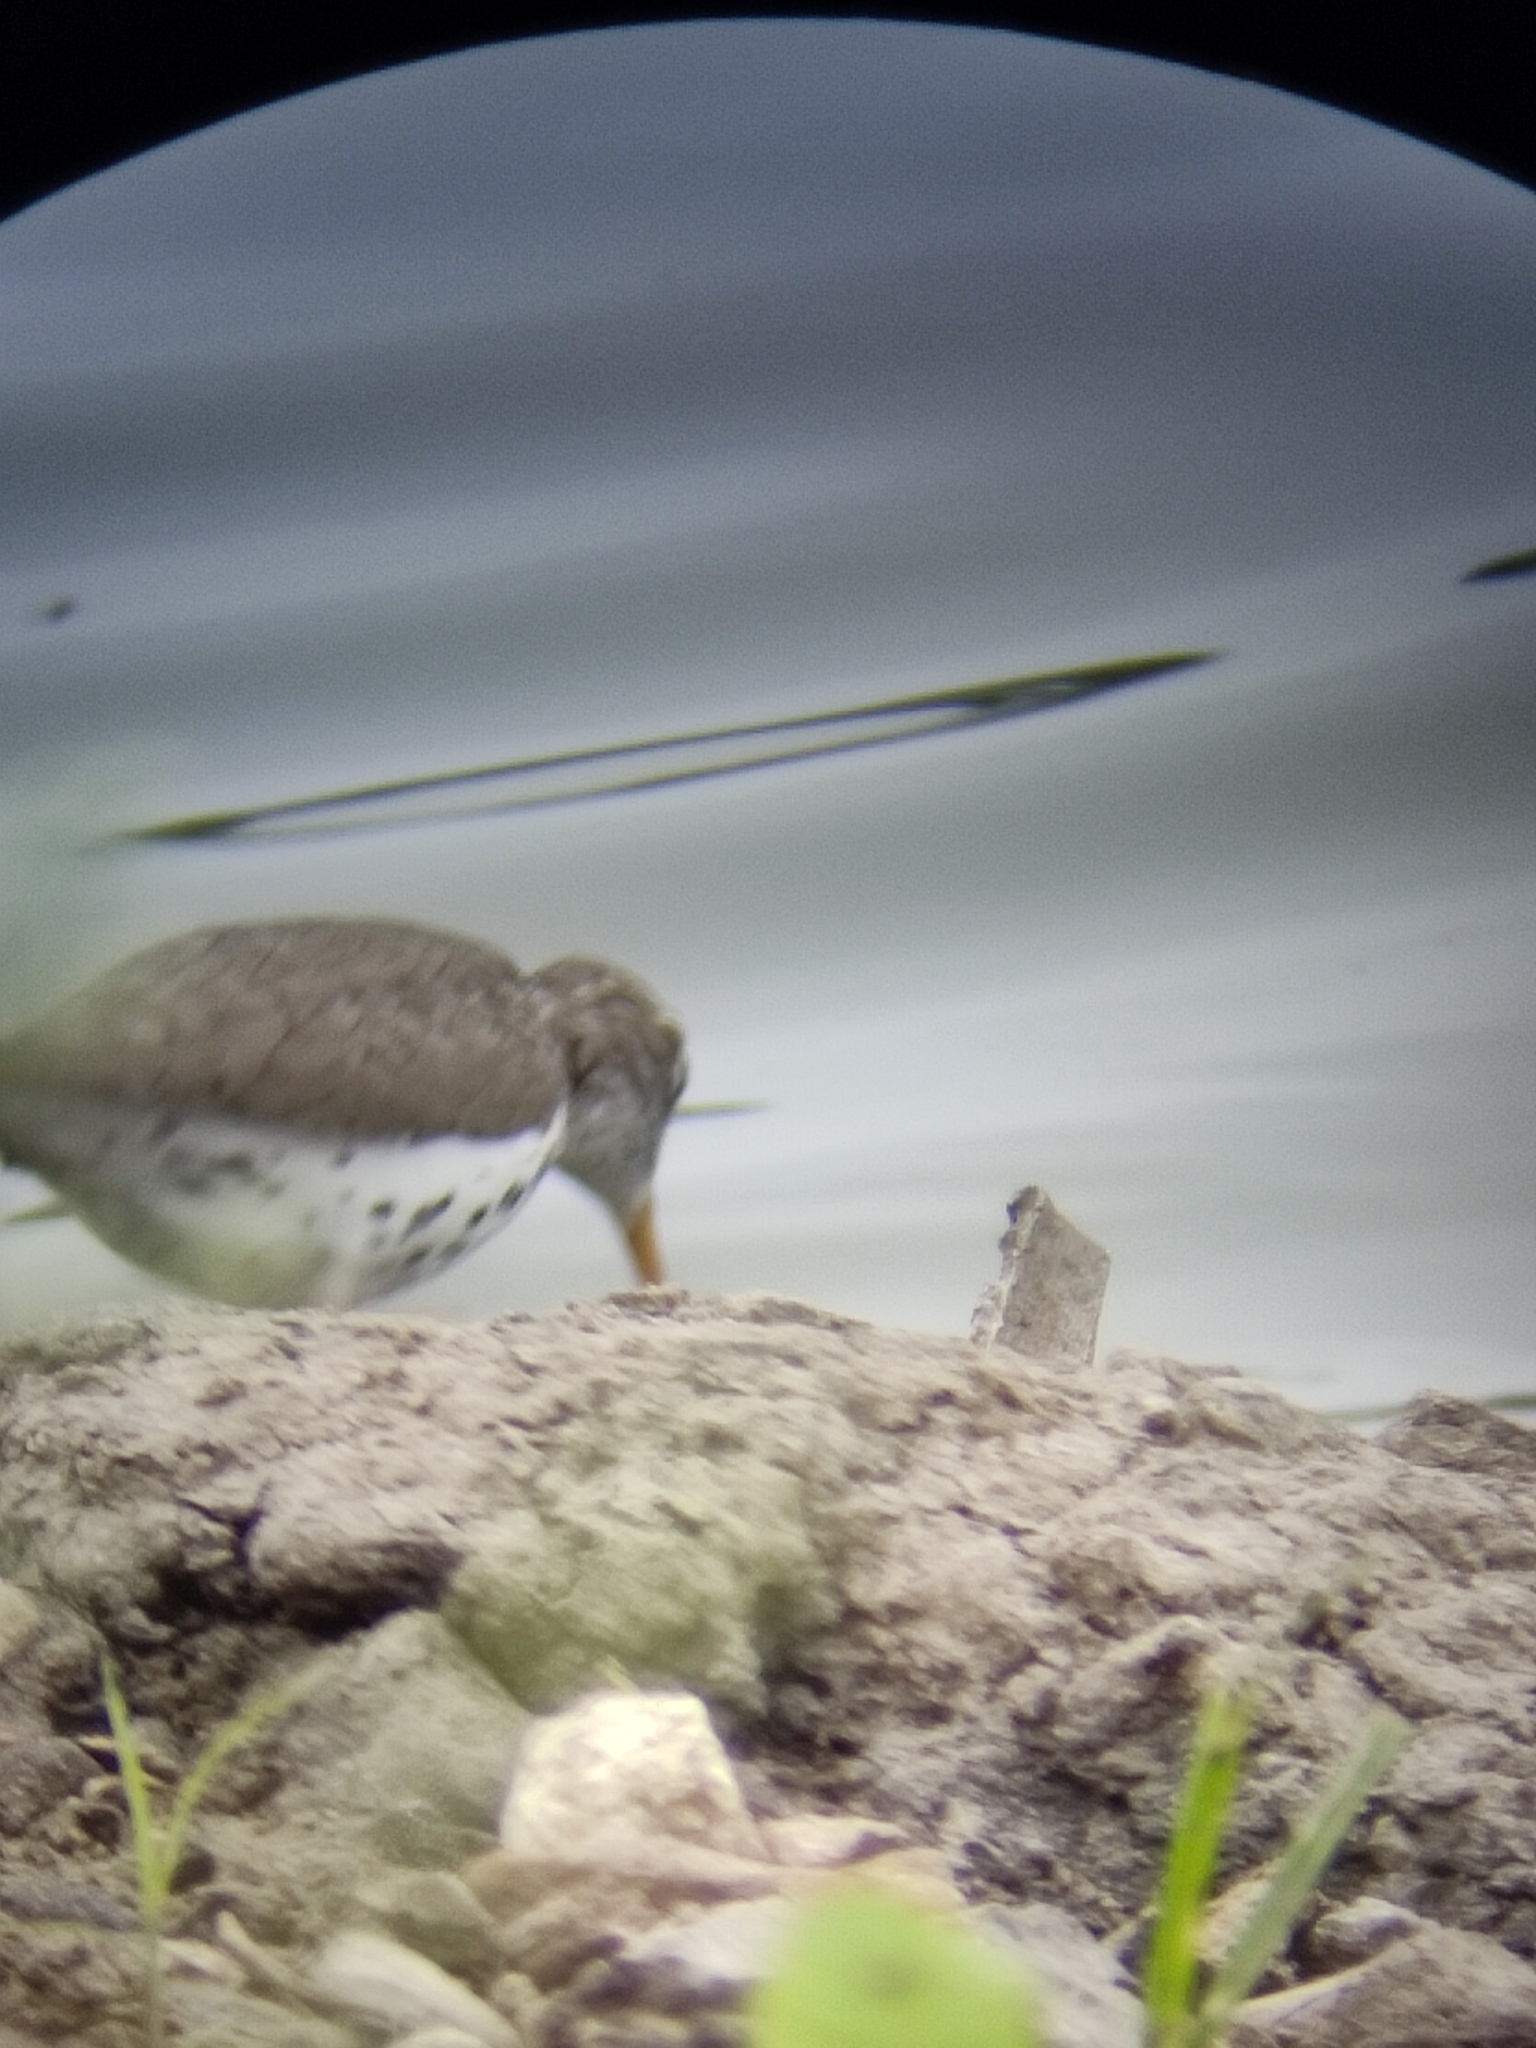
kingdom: Animalia
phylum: Chordata
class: Aves
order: Charadriiformes
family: Scolopacidae
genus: Actitis
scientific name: Actitis macularius
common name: Spotted sandpiper
